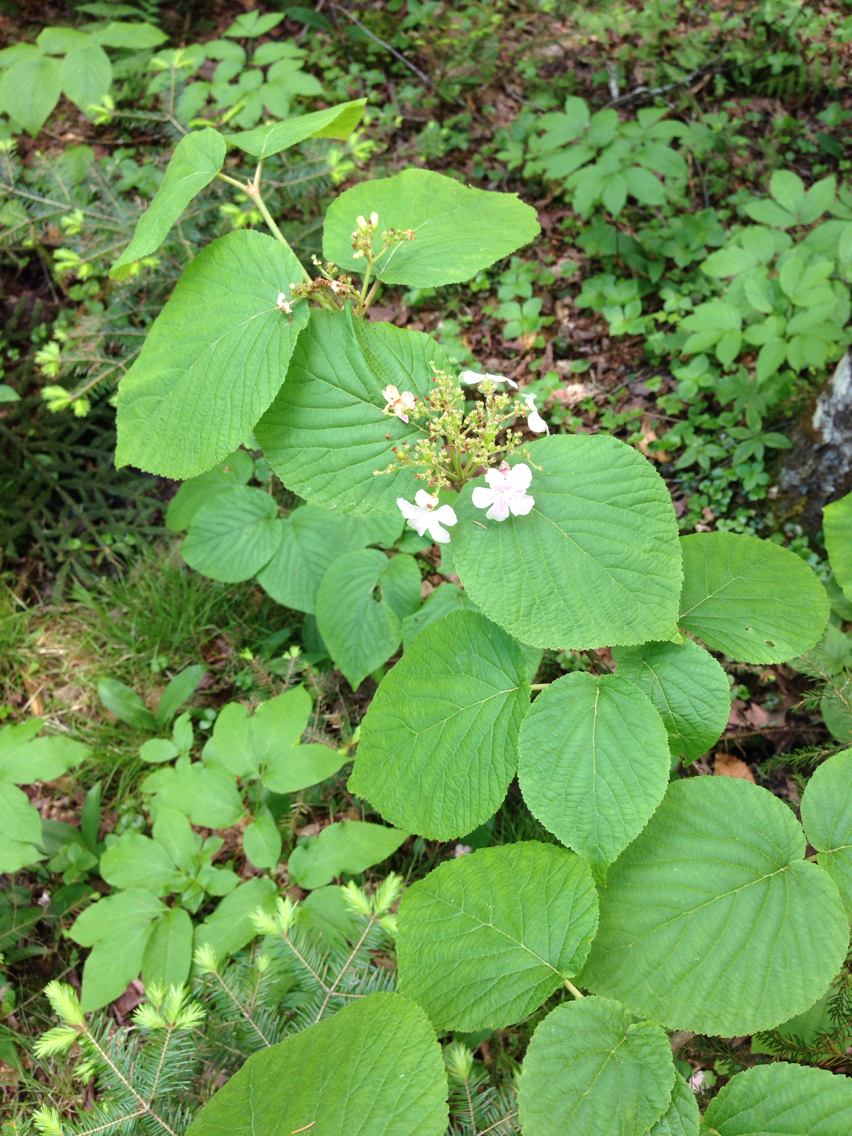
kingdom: Plantae
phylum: Tracheophyta
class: Magnoliopsida
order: Dipsacales
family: Viburnaceae
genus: Viburnum
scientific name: Viburnum lantanoides
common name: Hobblebush
